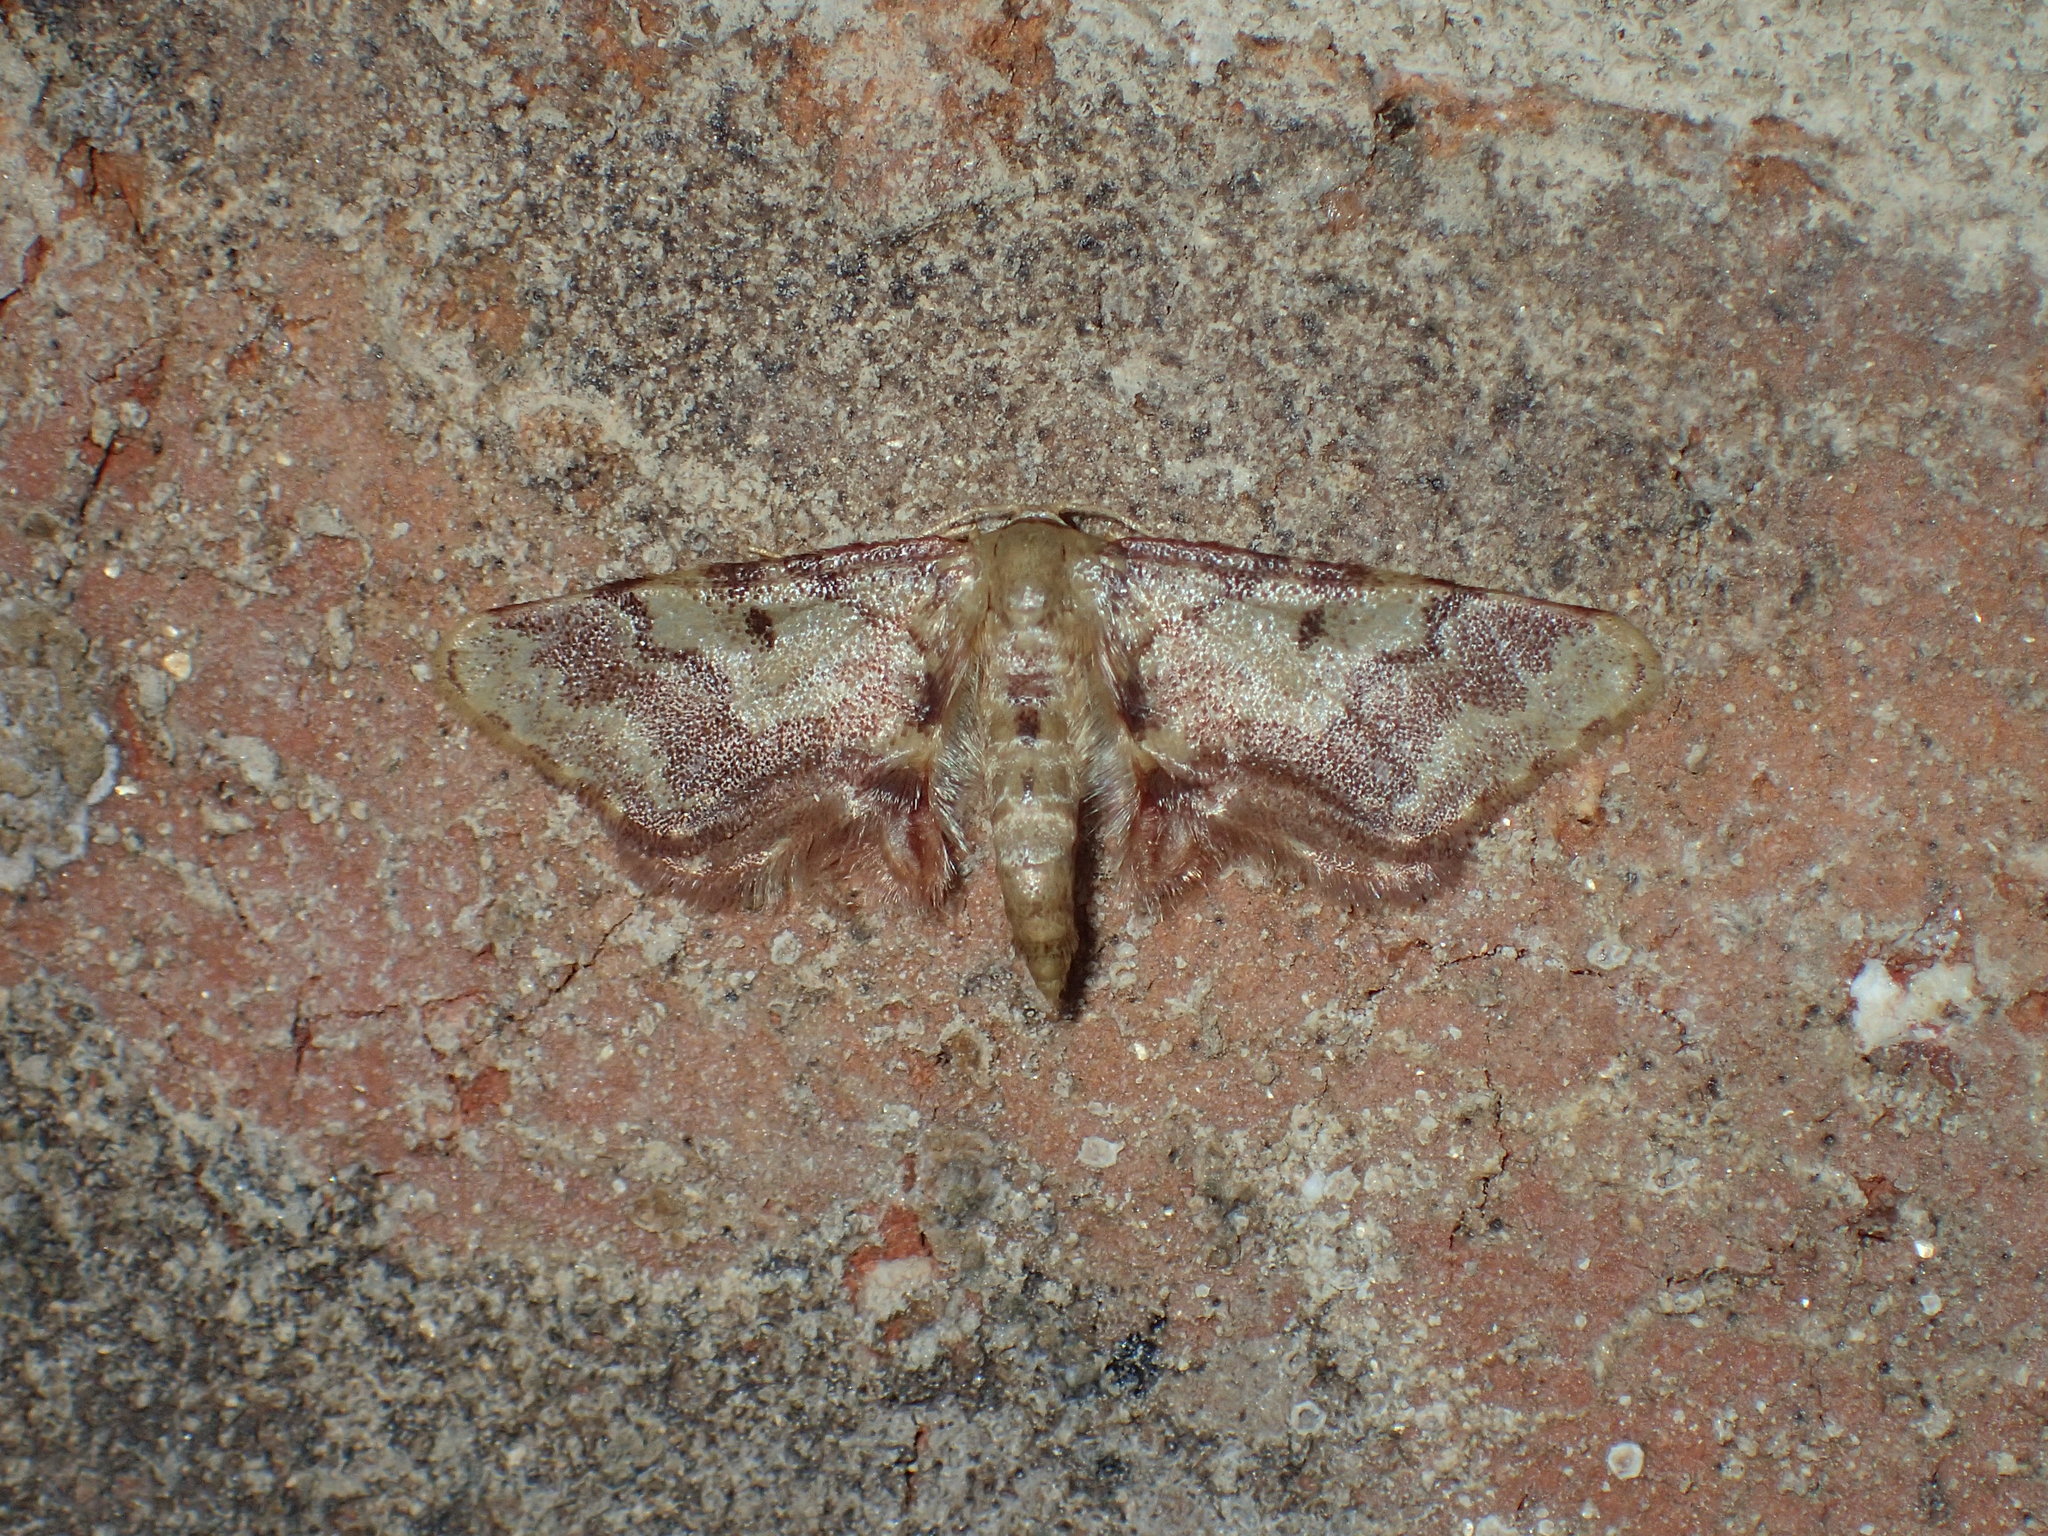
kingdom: Animalia
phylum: Arthropoda
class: Insecta
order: Lepidoptera
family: Geometridae
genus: Idaea
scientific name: Idaea furciferata
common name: Notch-winged wave
